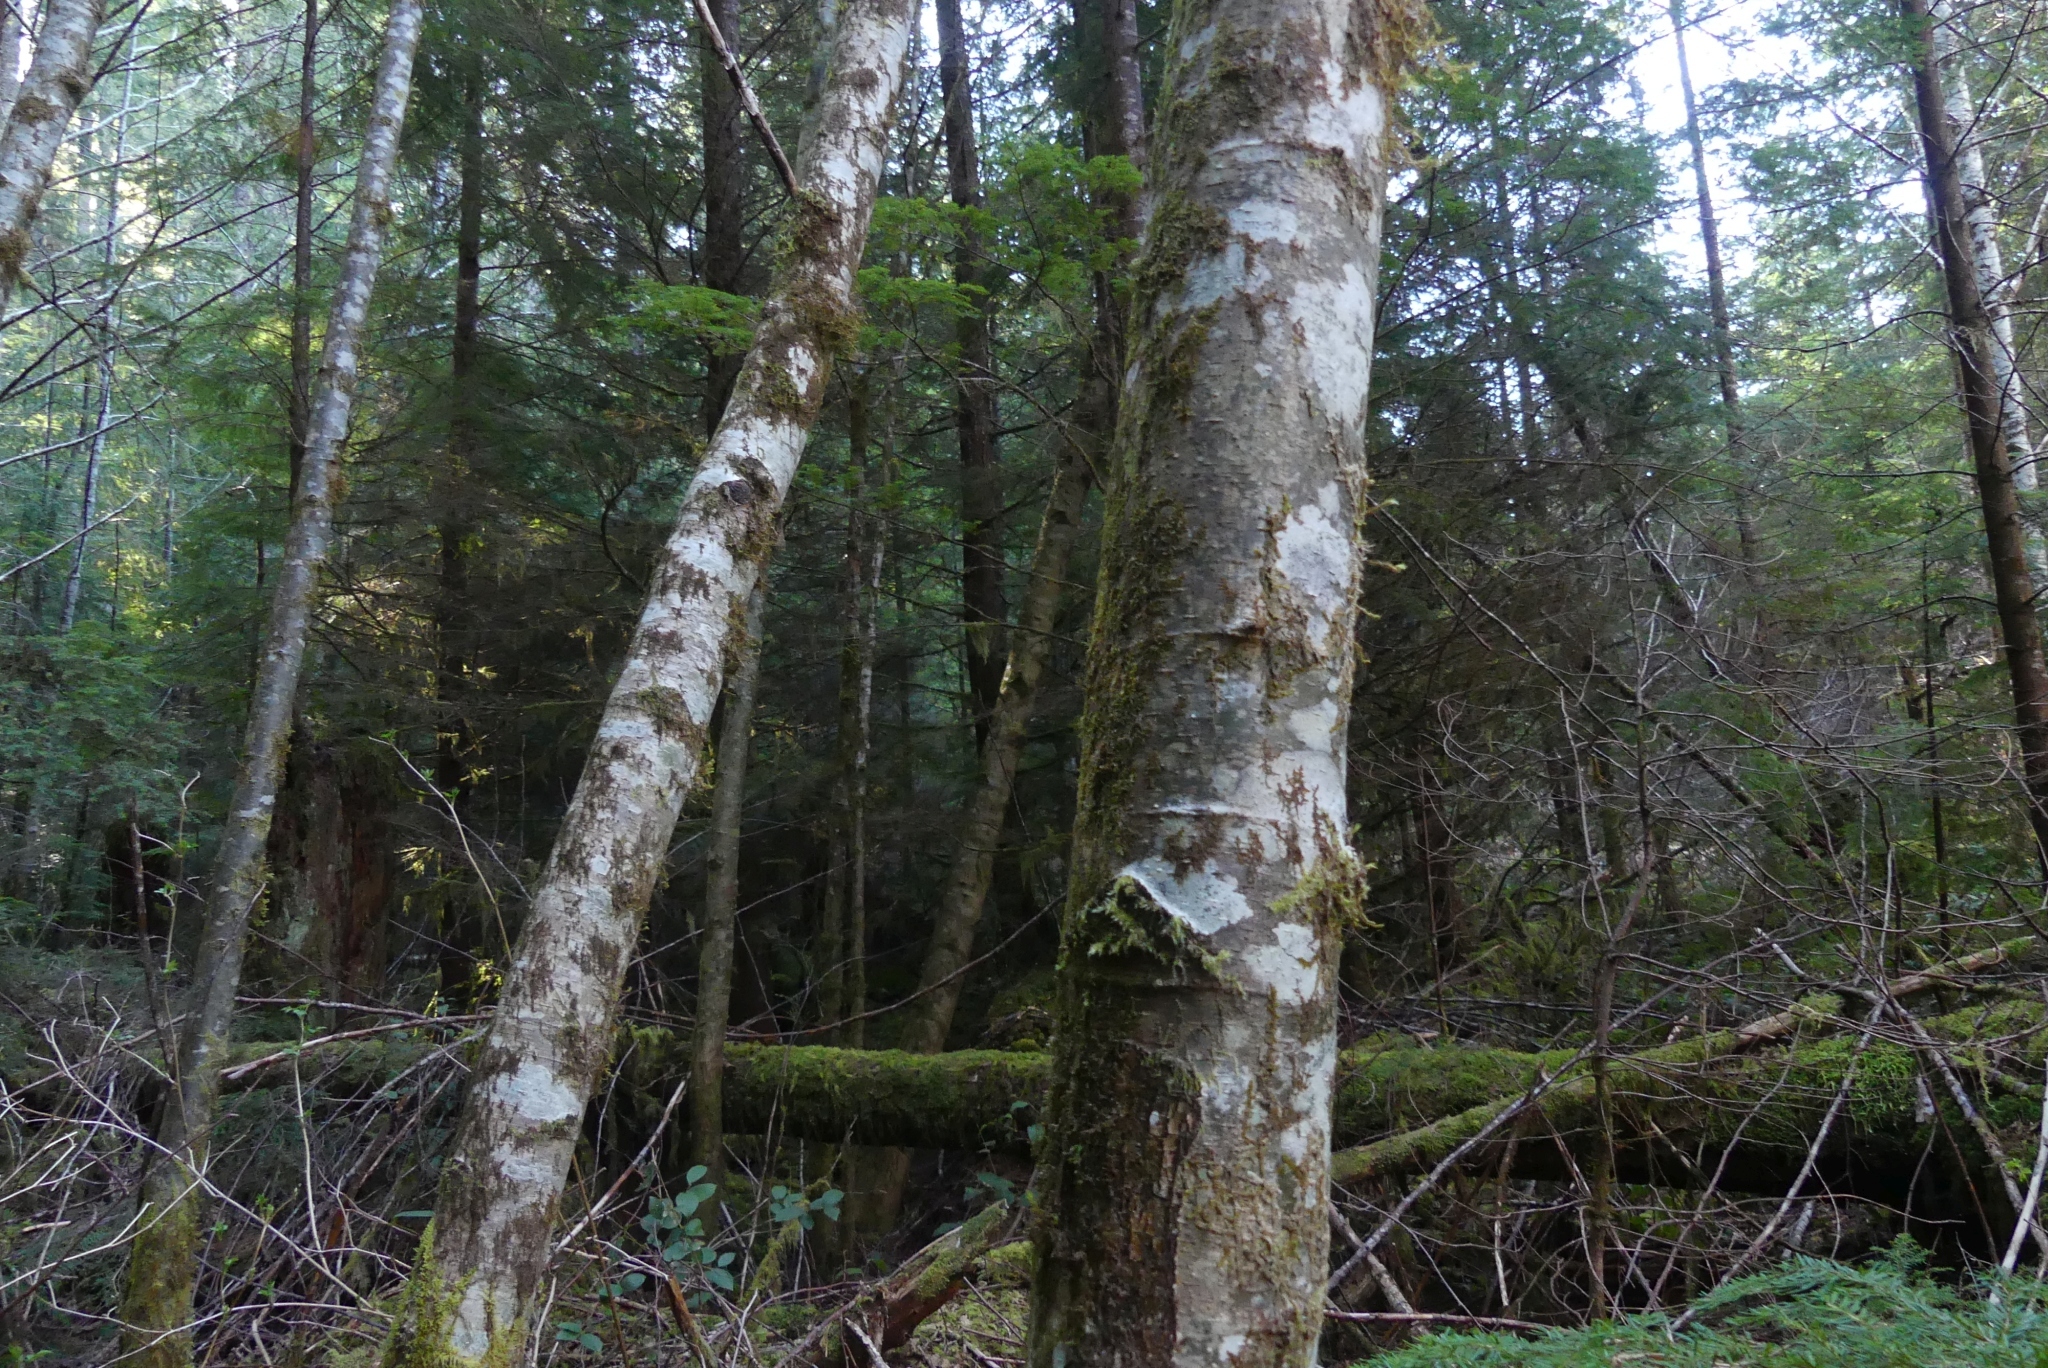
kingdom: Plantae
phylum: Tracheophyta
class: Magnoliopsida
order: Fagales
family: Betulaceae
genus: Alnus
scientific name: Alnus rubra
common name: Red alder
